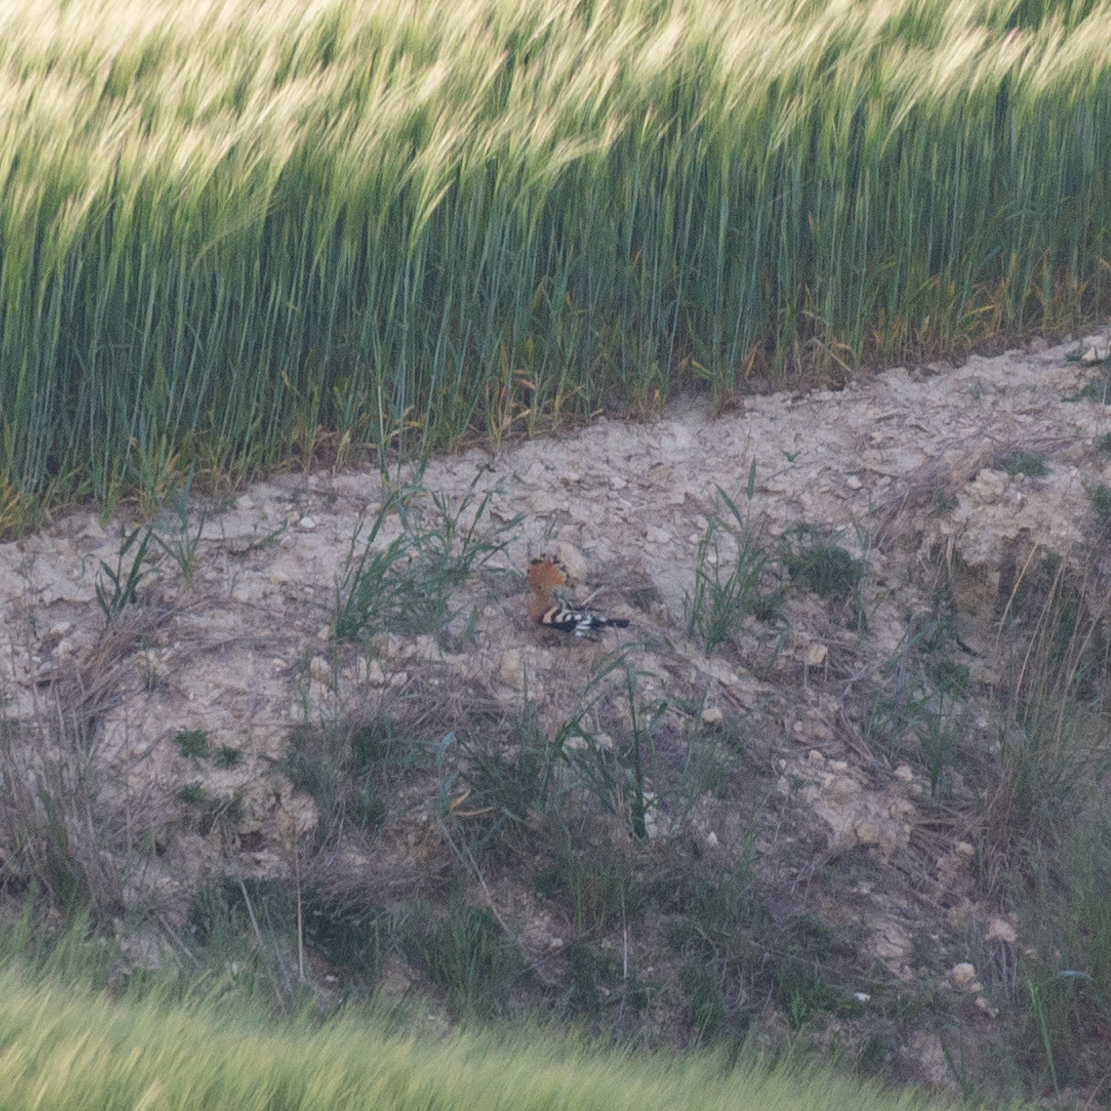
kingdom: Animalia
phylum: Chordata
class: Aves
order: Bucerotiformes
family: Upupidae
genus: Upupa
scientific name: Upupa epops
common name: Eurasian hoopoe
